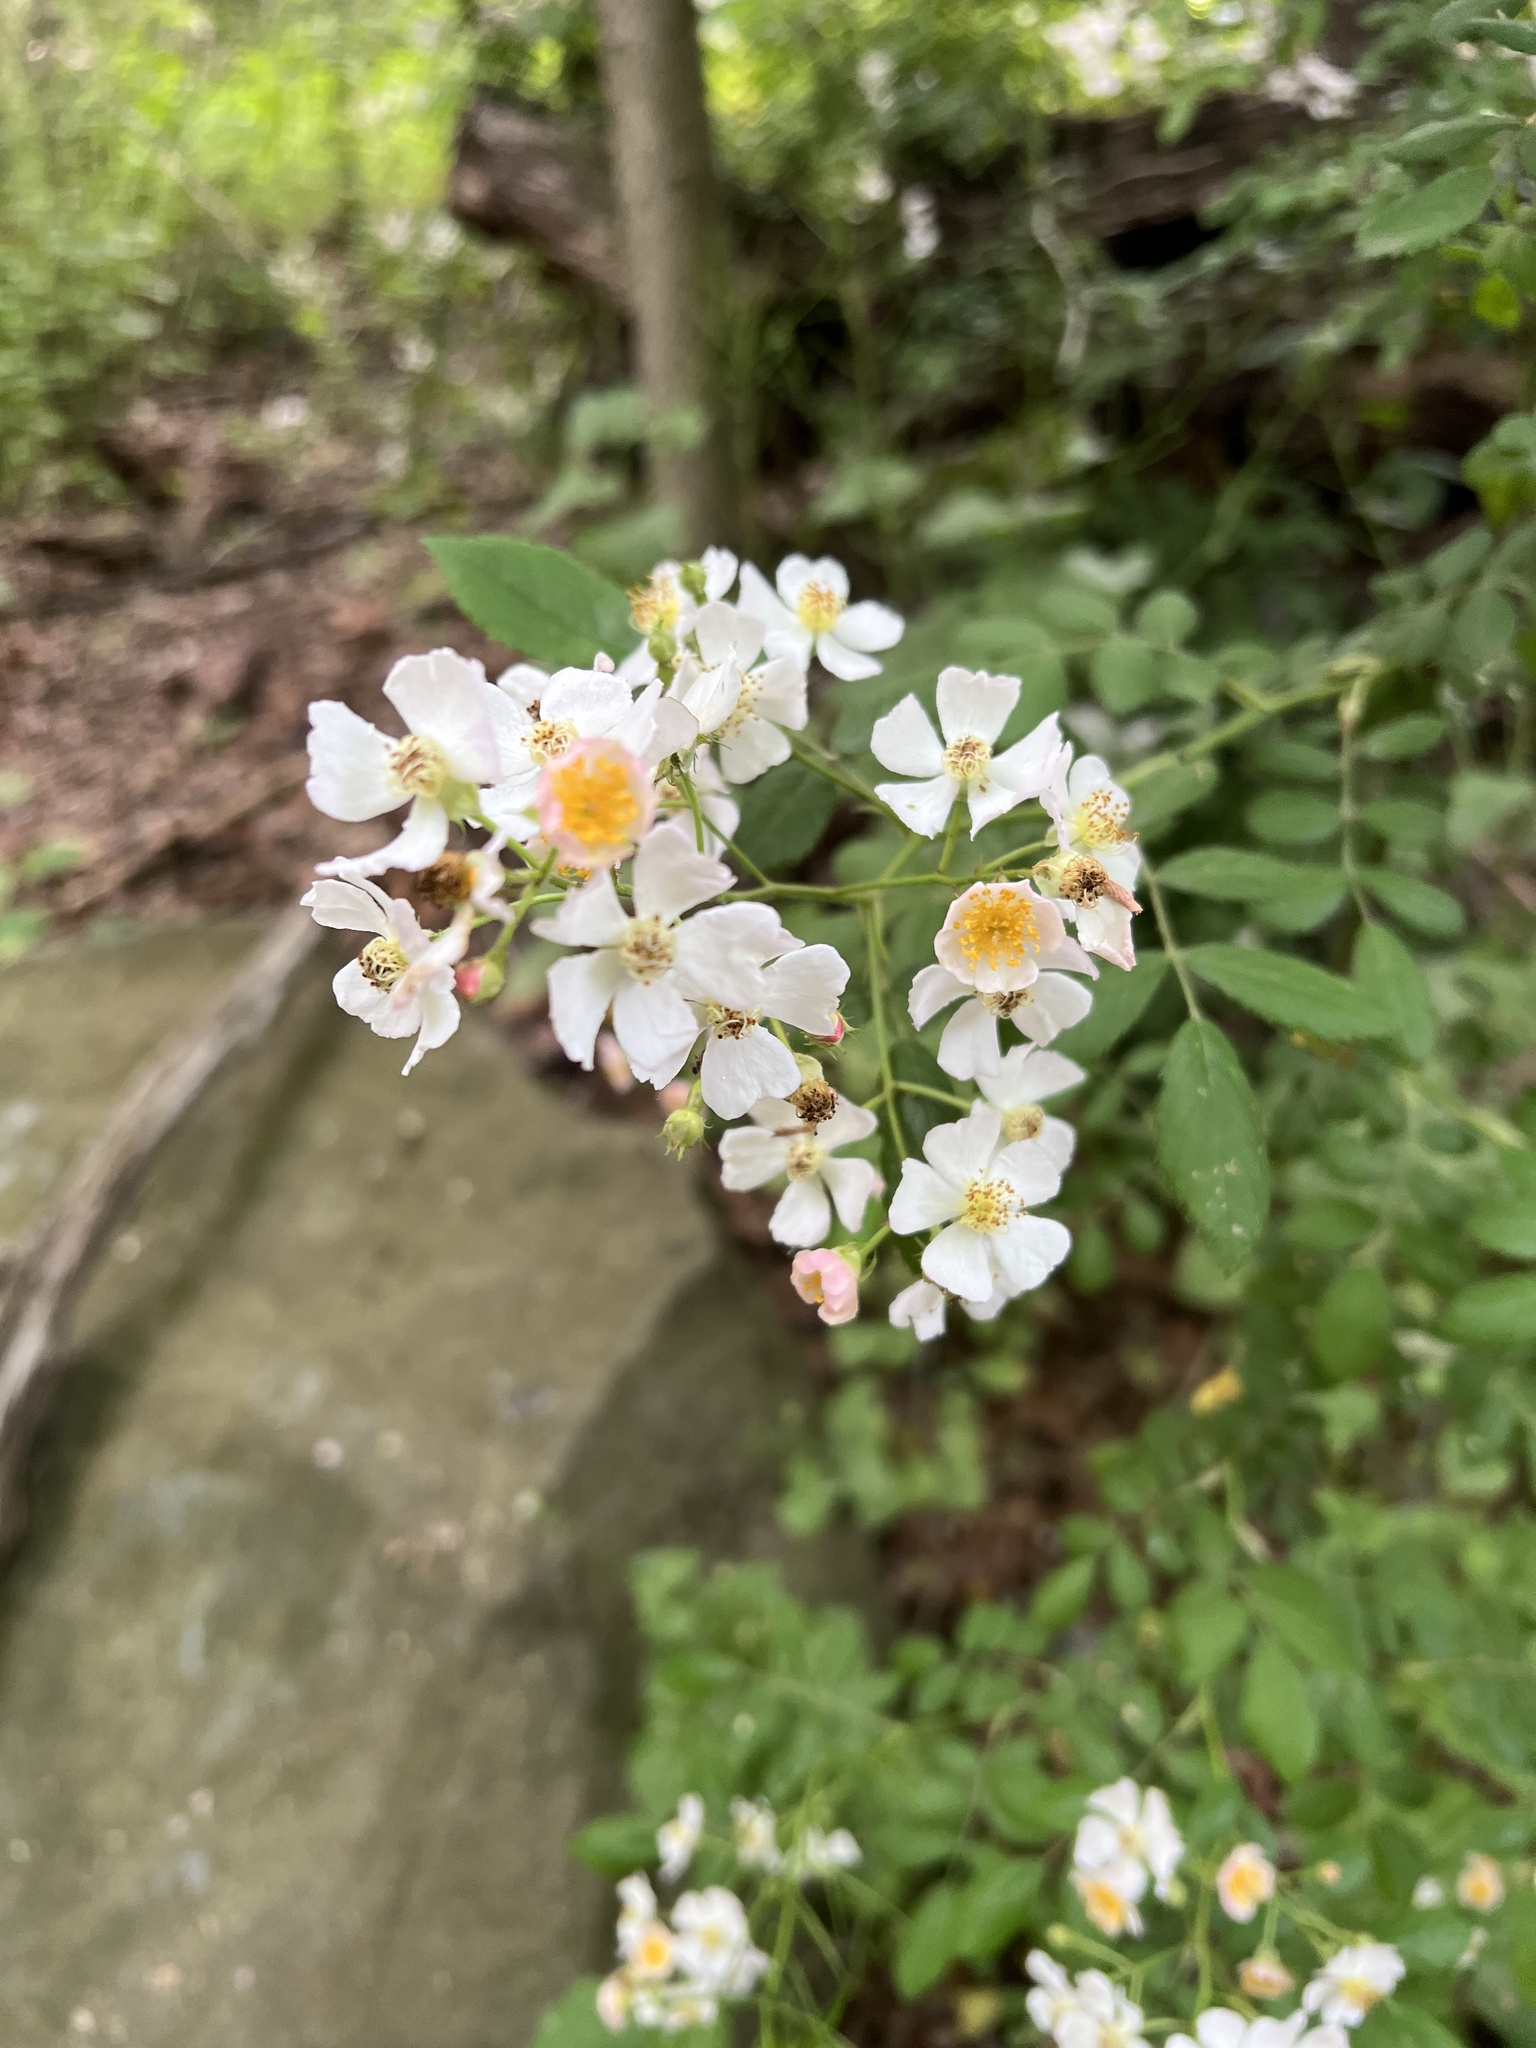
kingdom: Plantae
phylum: Tracheophyta
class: Magnoliopsida
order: Rosales
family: Rosaceae
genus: Rosa
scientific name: Rosa multiflora
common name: Multiflora rose
